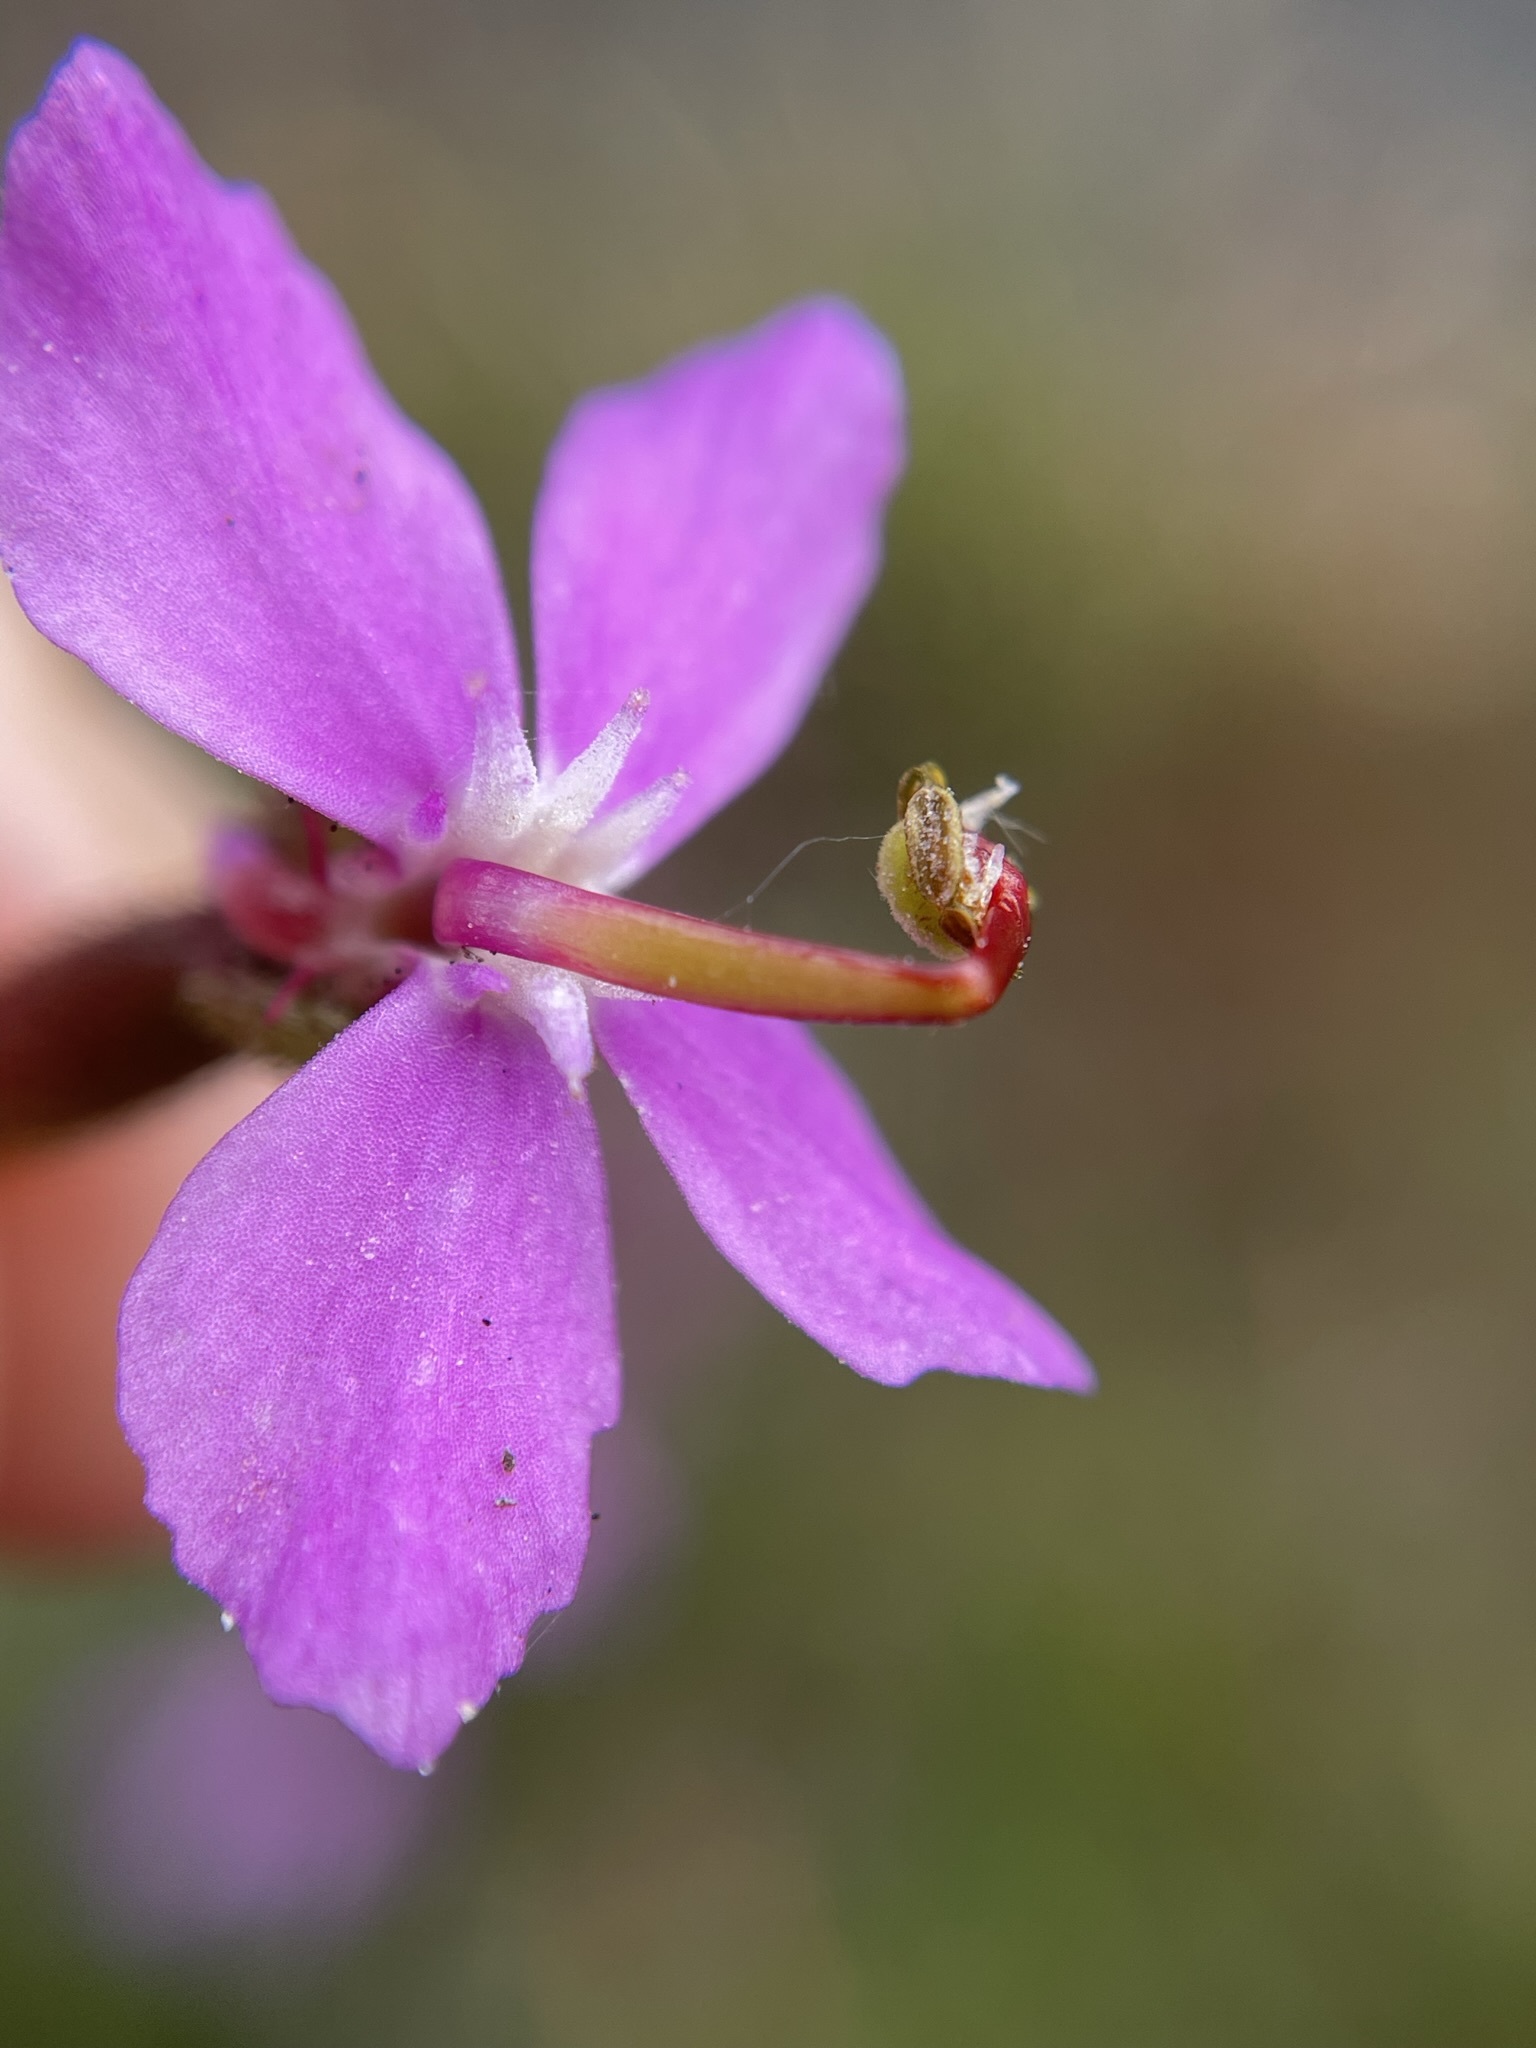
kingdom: Plantae
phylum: Tracheophyta
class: Magnoliopsida
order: Asterales
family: Stylidiaceae
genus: Stylidium
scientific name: Stylidium graminifolium
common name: Grass triggerplant
